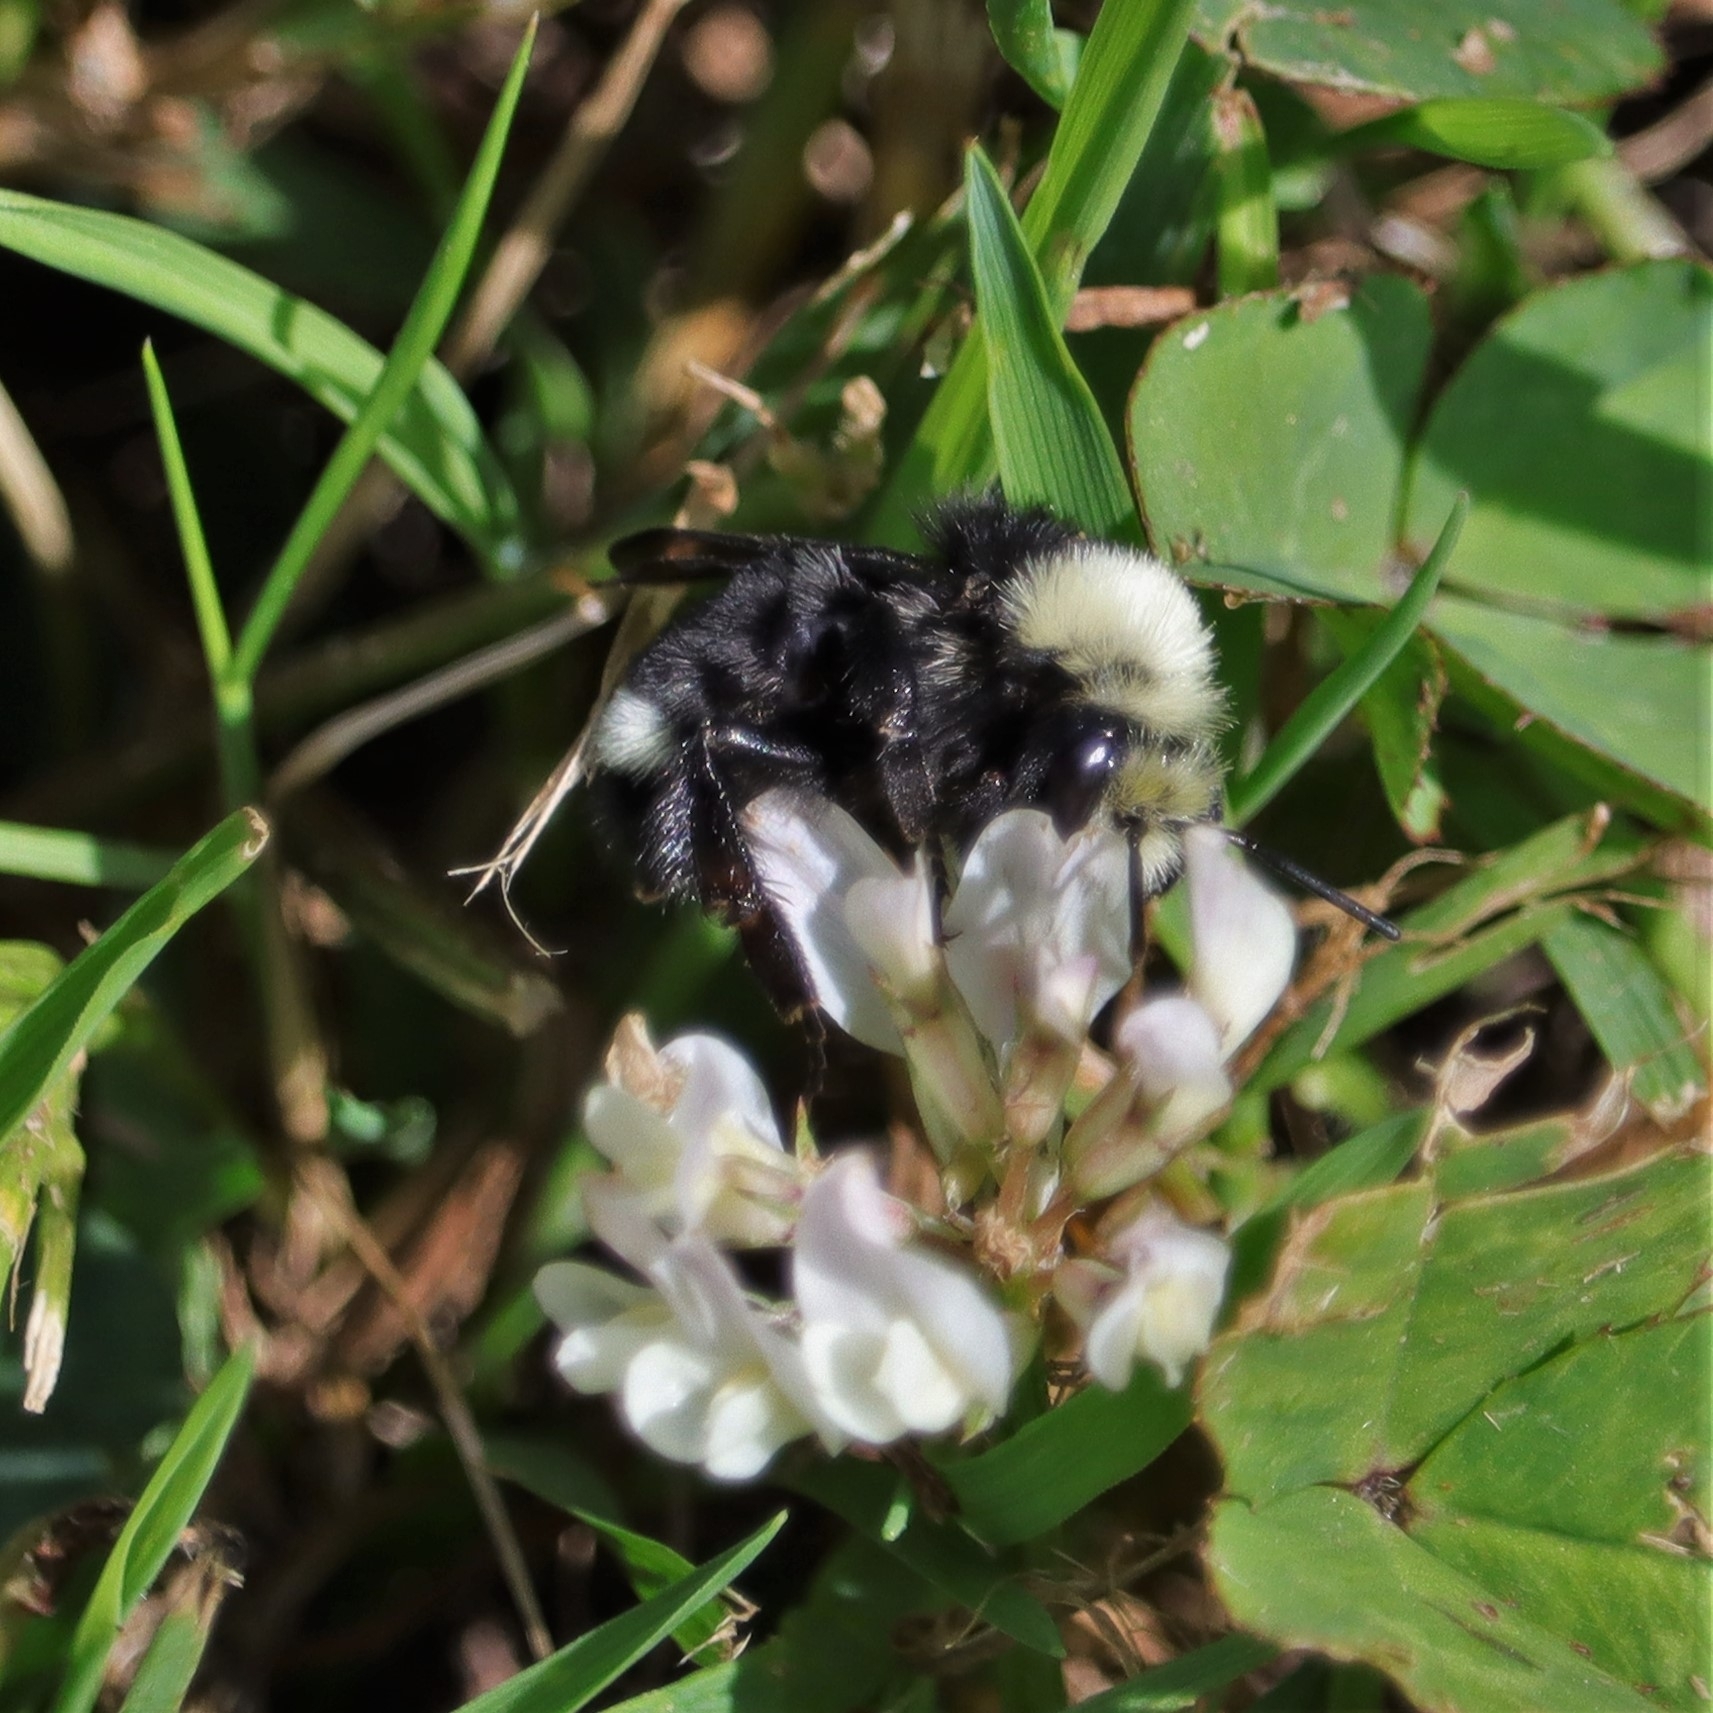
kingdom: Animalia
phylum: Arthropoda
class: Insecta
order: Hymenoptera
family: Apidae
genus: Bombus
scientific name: Bombus vosnesenskii
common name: Vosnesensky bumble bee
